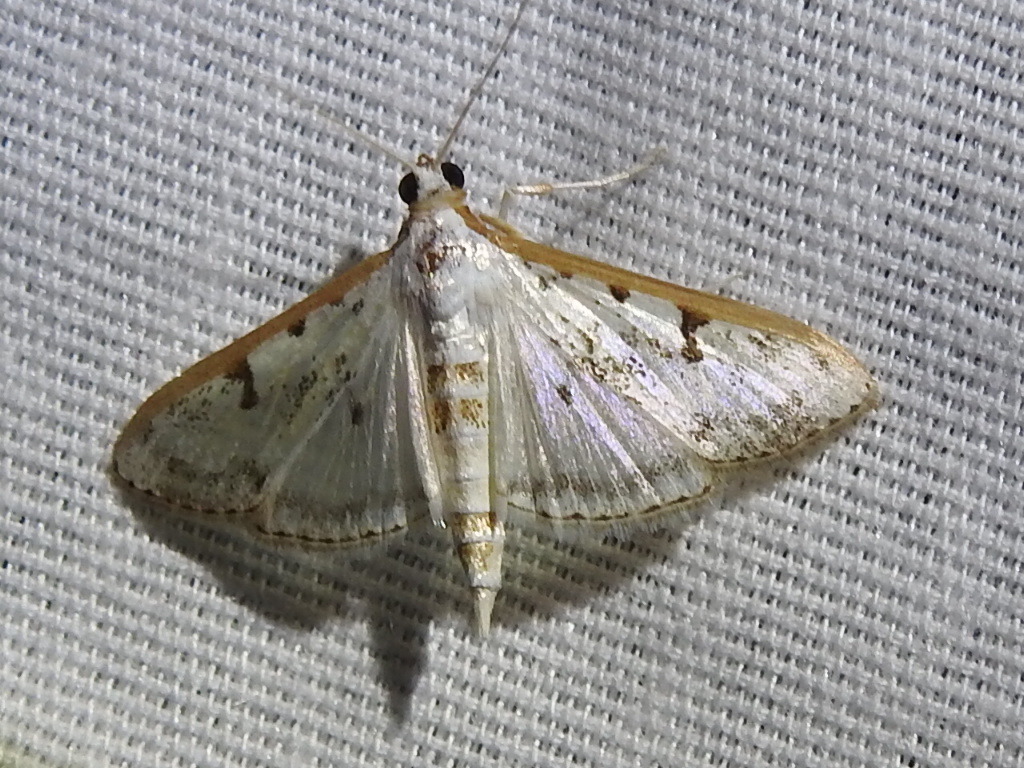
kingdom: Animalia
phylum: Arthropoda
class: Insecta
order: Lepidoptera
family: Crambidae
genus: Palpita
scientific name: Palpita gracilalis
